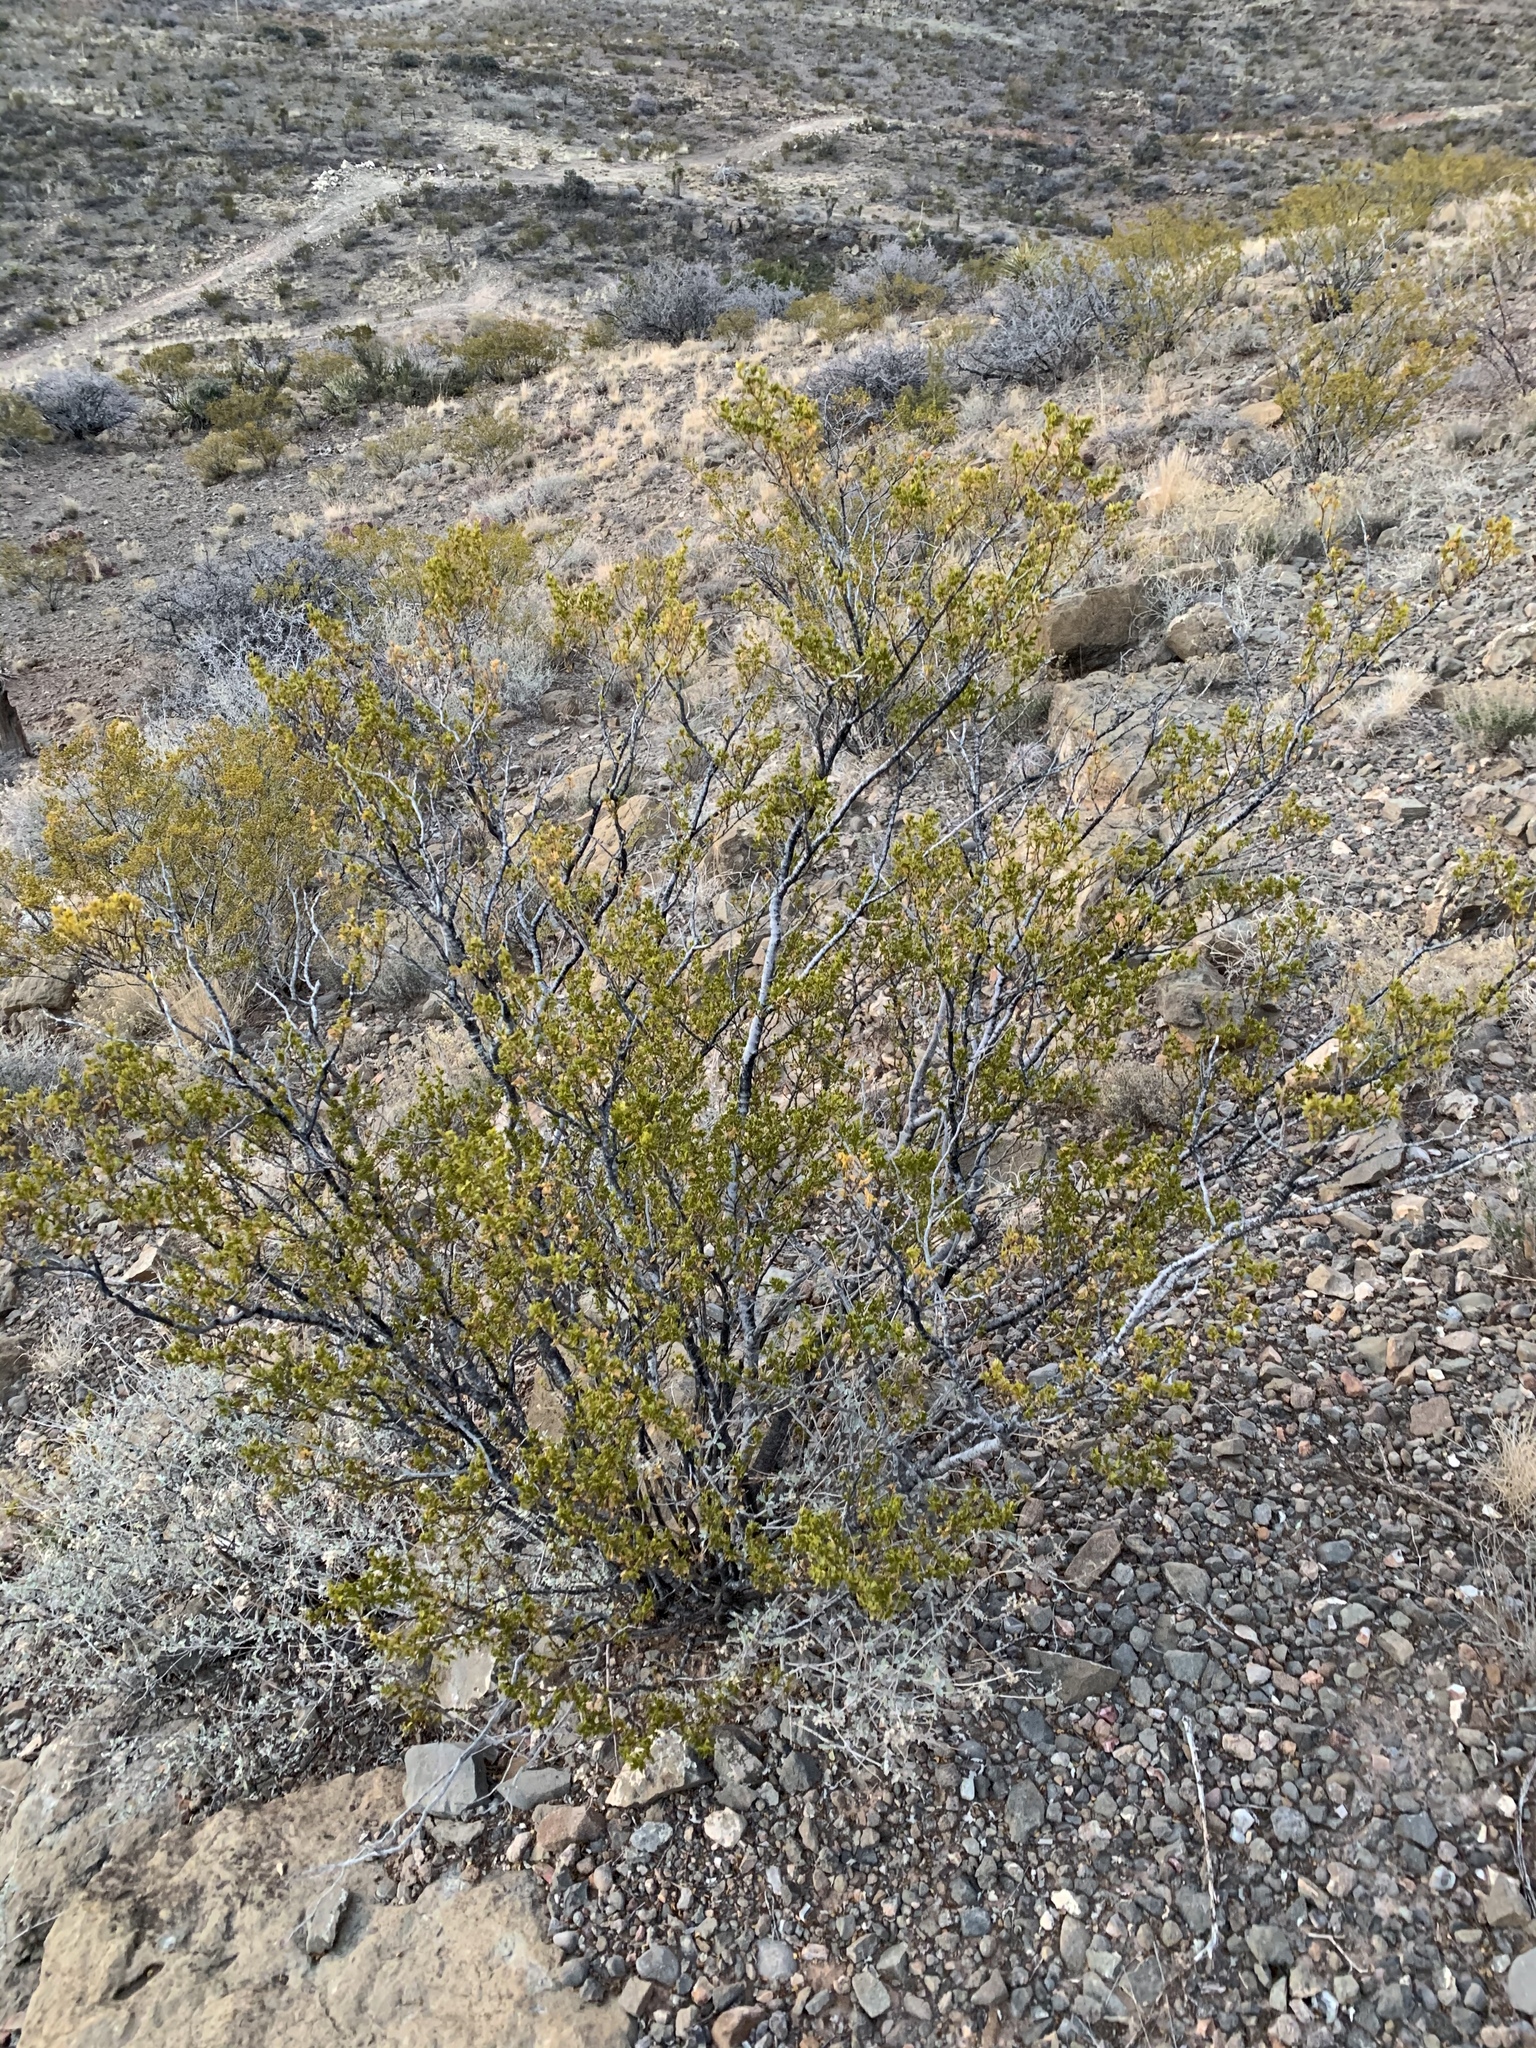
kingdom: Plantae
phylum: Tracheophyta
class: Magnoliopsida
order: Zygophyllales
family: Zygophyllaceae
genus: Larrea
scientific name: Larrea tridentata
